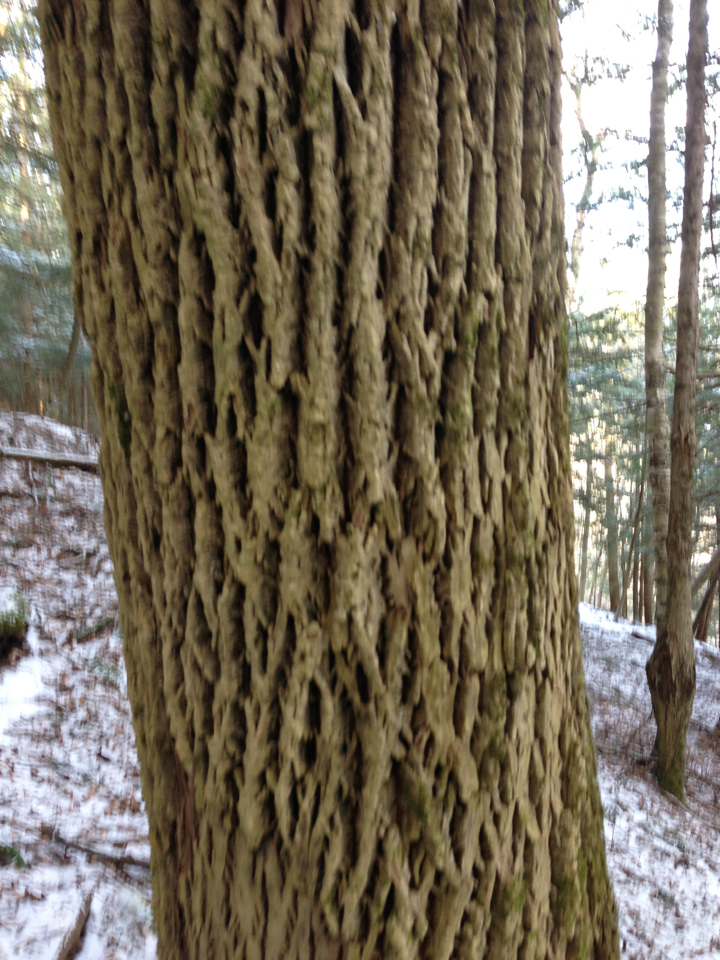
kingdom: Plantae
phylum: Tracheophyta
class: Magnoliopsida
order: Lamiales
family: Oleaceae
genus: Fraxinus
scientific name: Fraxinus americana
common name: White ash
